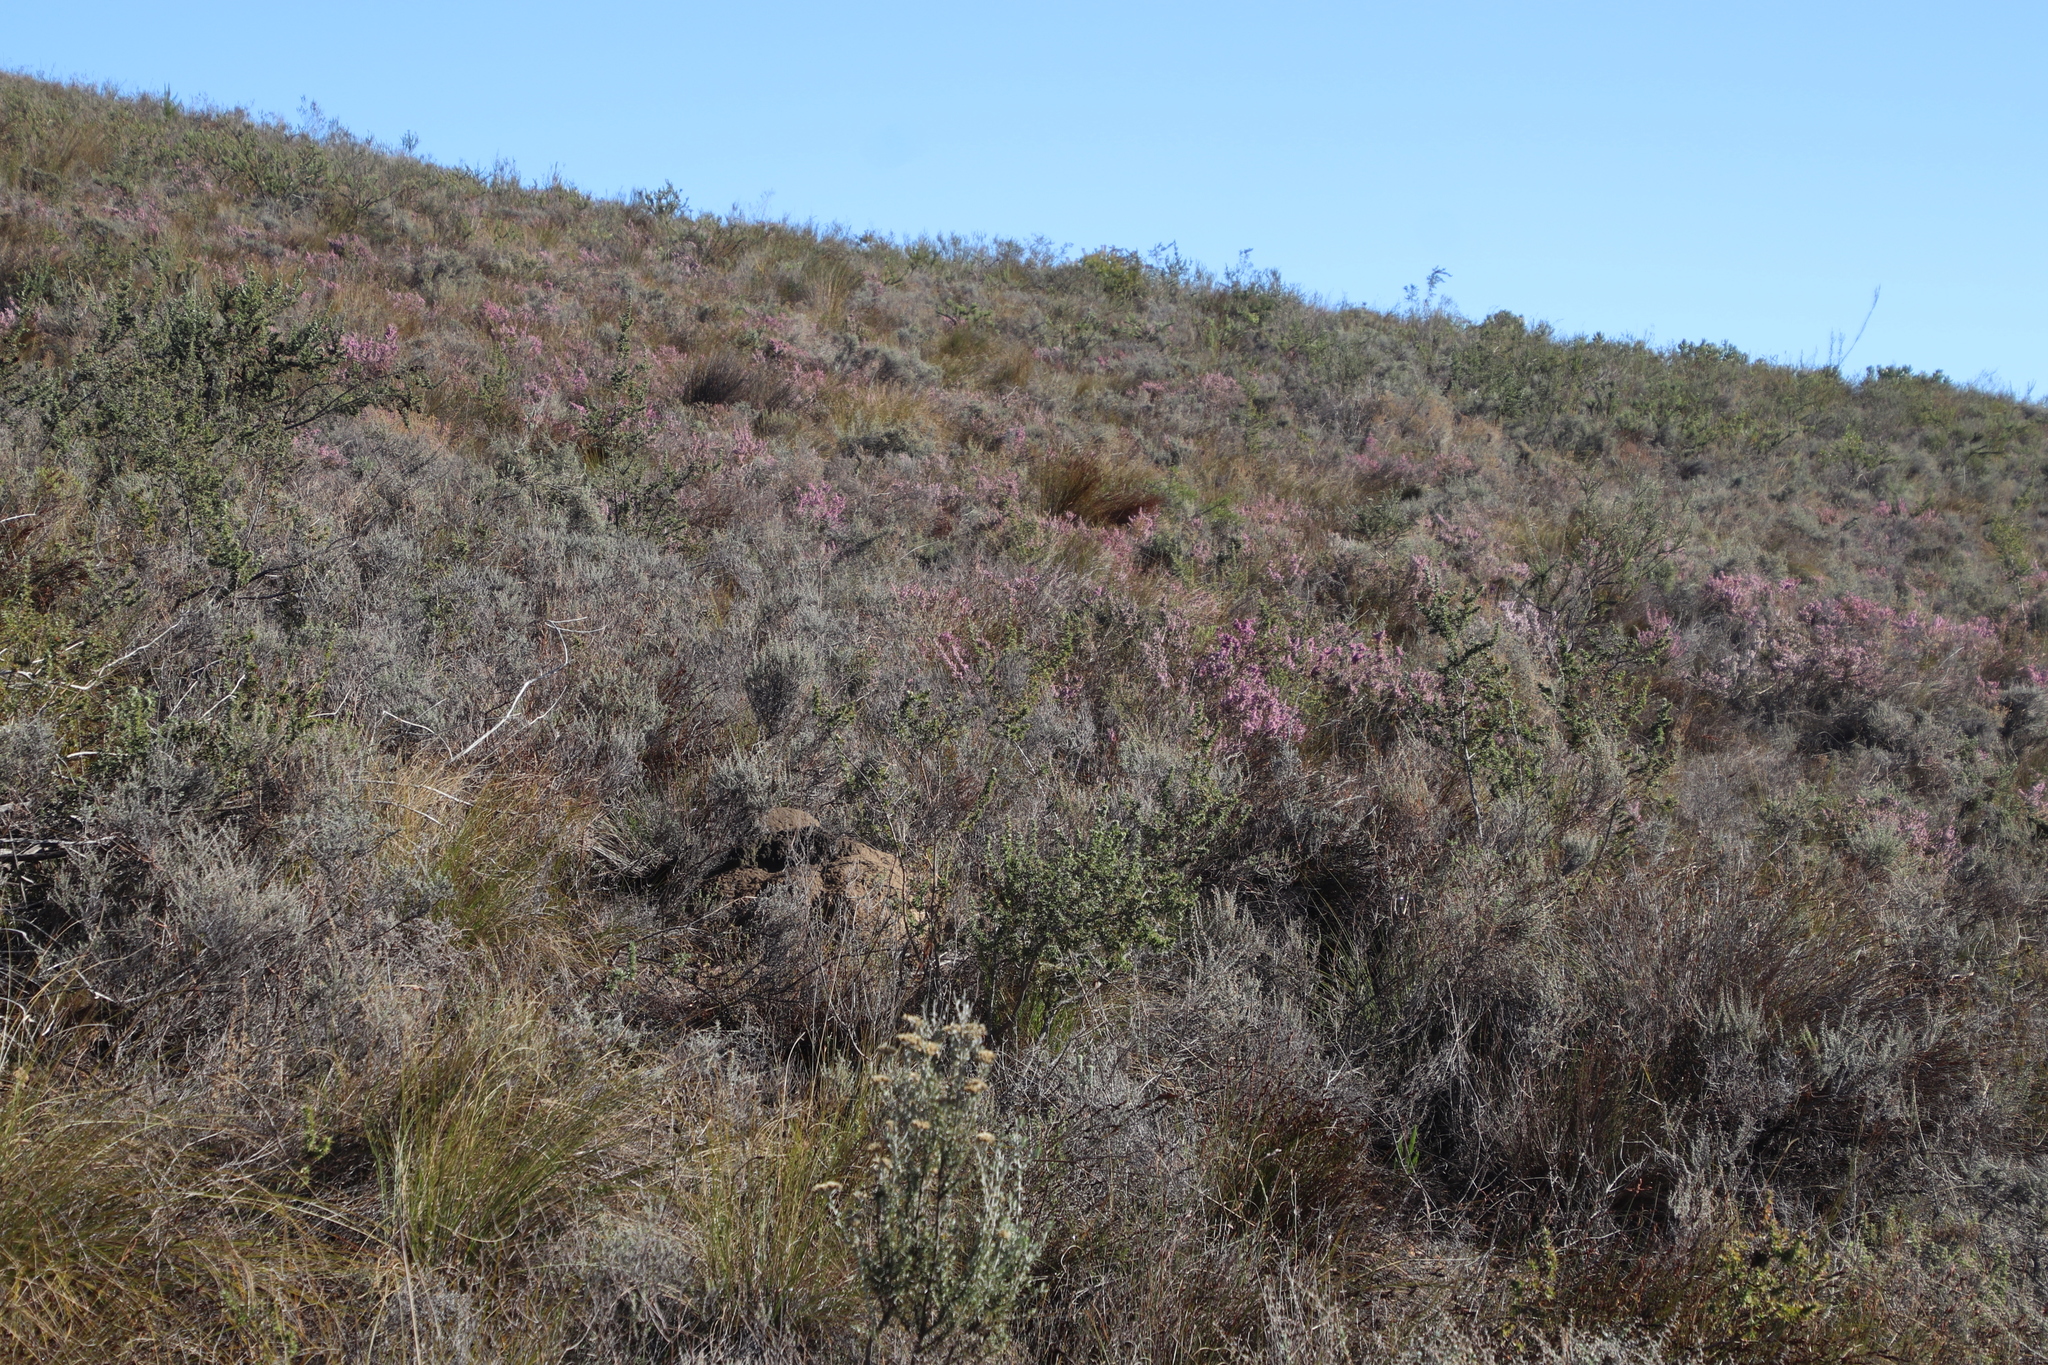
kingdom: Plantae
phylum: Tracheophyta
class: Magnoliopsida
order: Proteales
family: Proteaceae
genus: Serruria
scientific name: Serruria pedunculata
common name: Fan-leaf spiderhead
